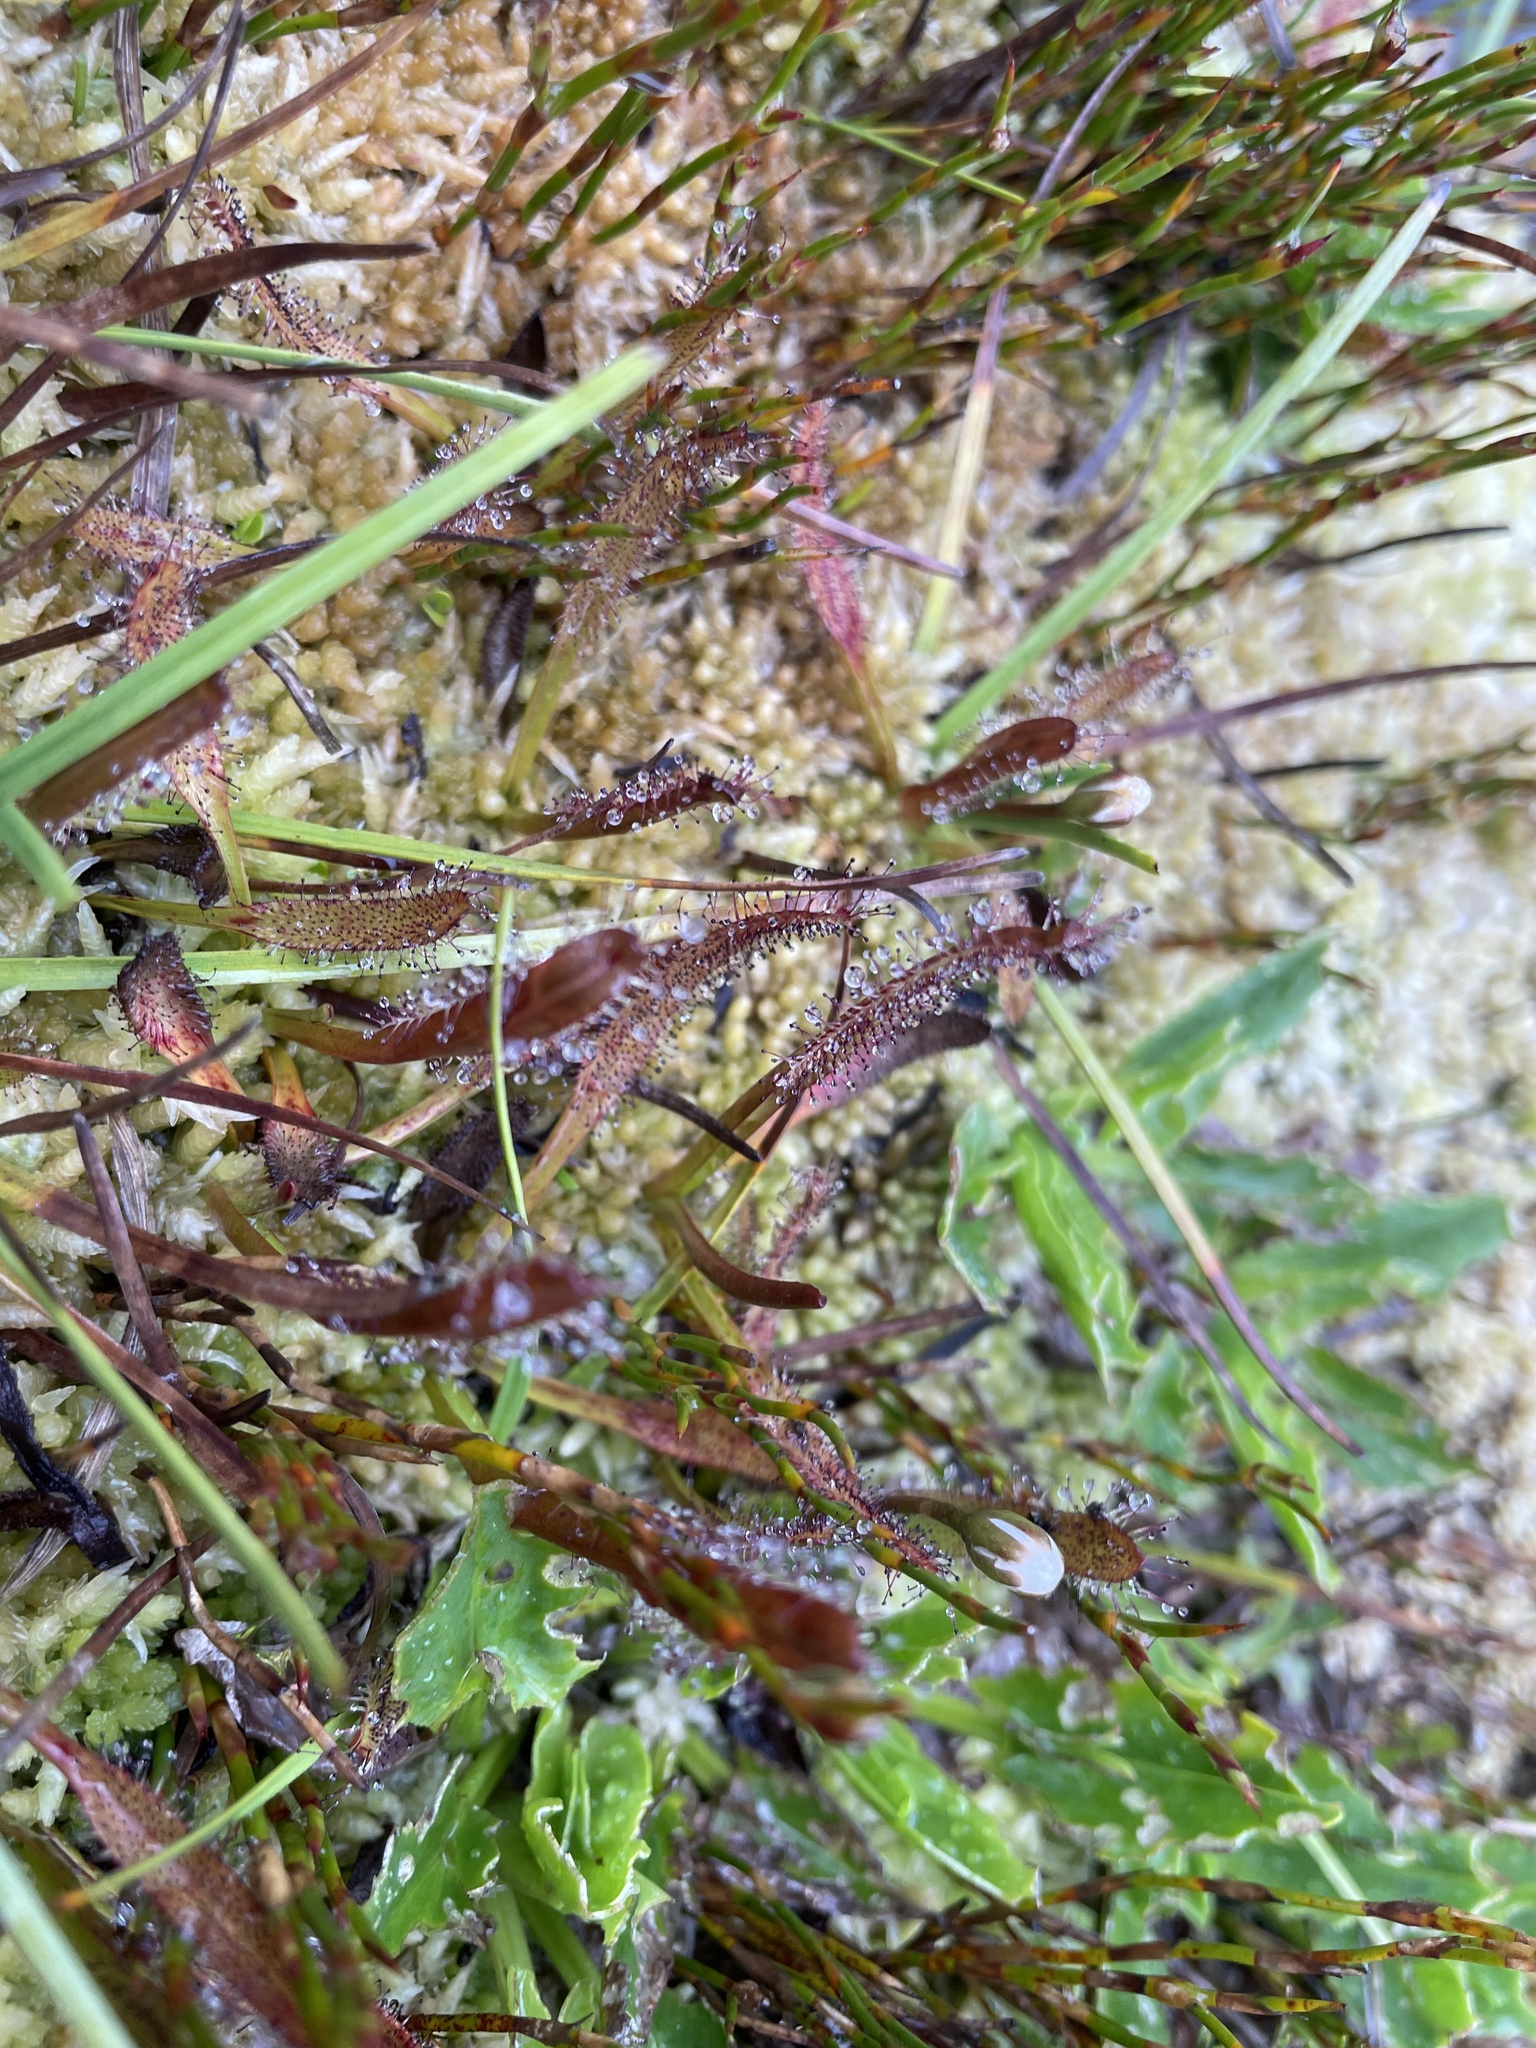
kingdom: Plantae
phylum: Tracheophyta
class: Magnoliopsida
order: Caryophyllales
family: Droseraceae
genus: Drosera
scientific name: Drosera arcturi
